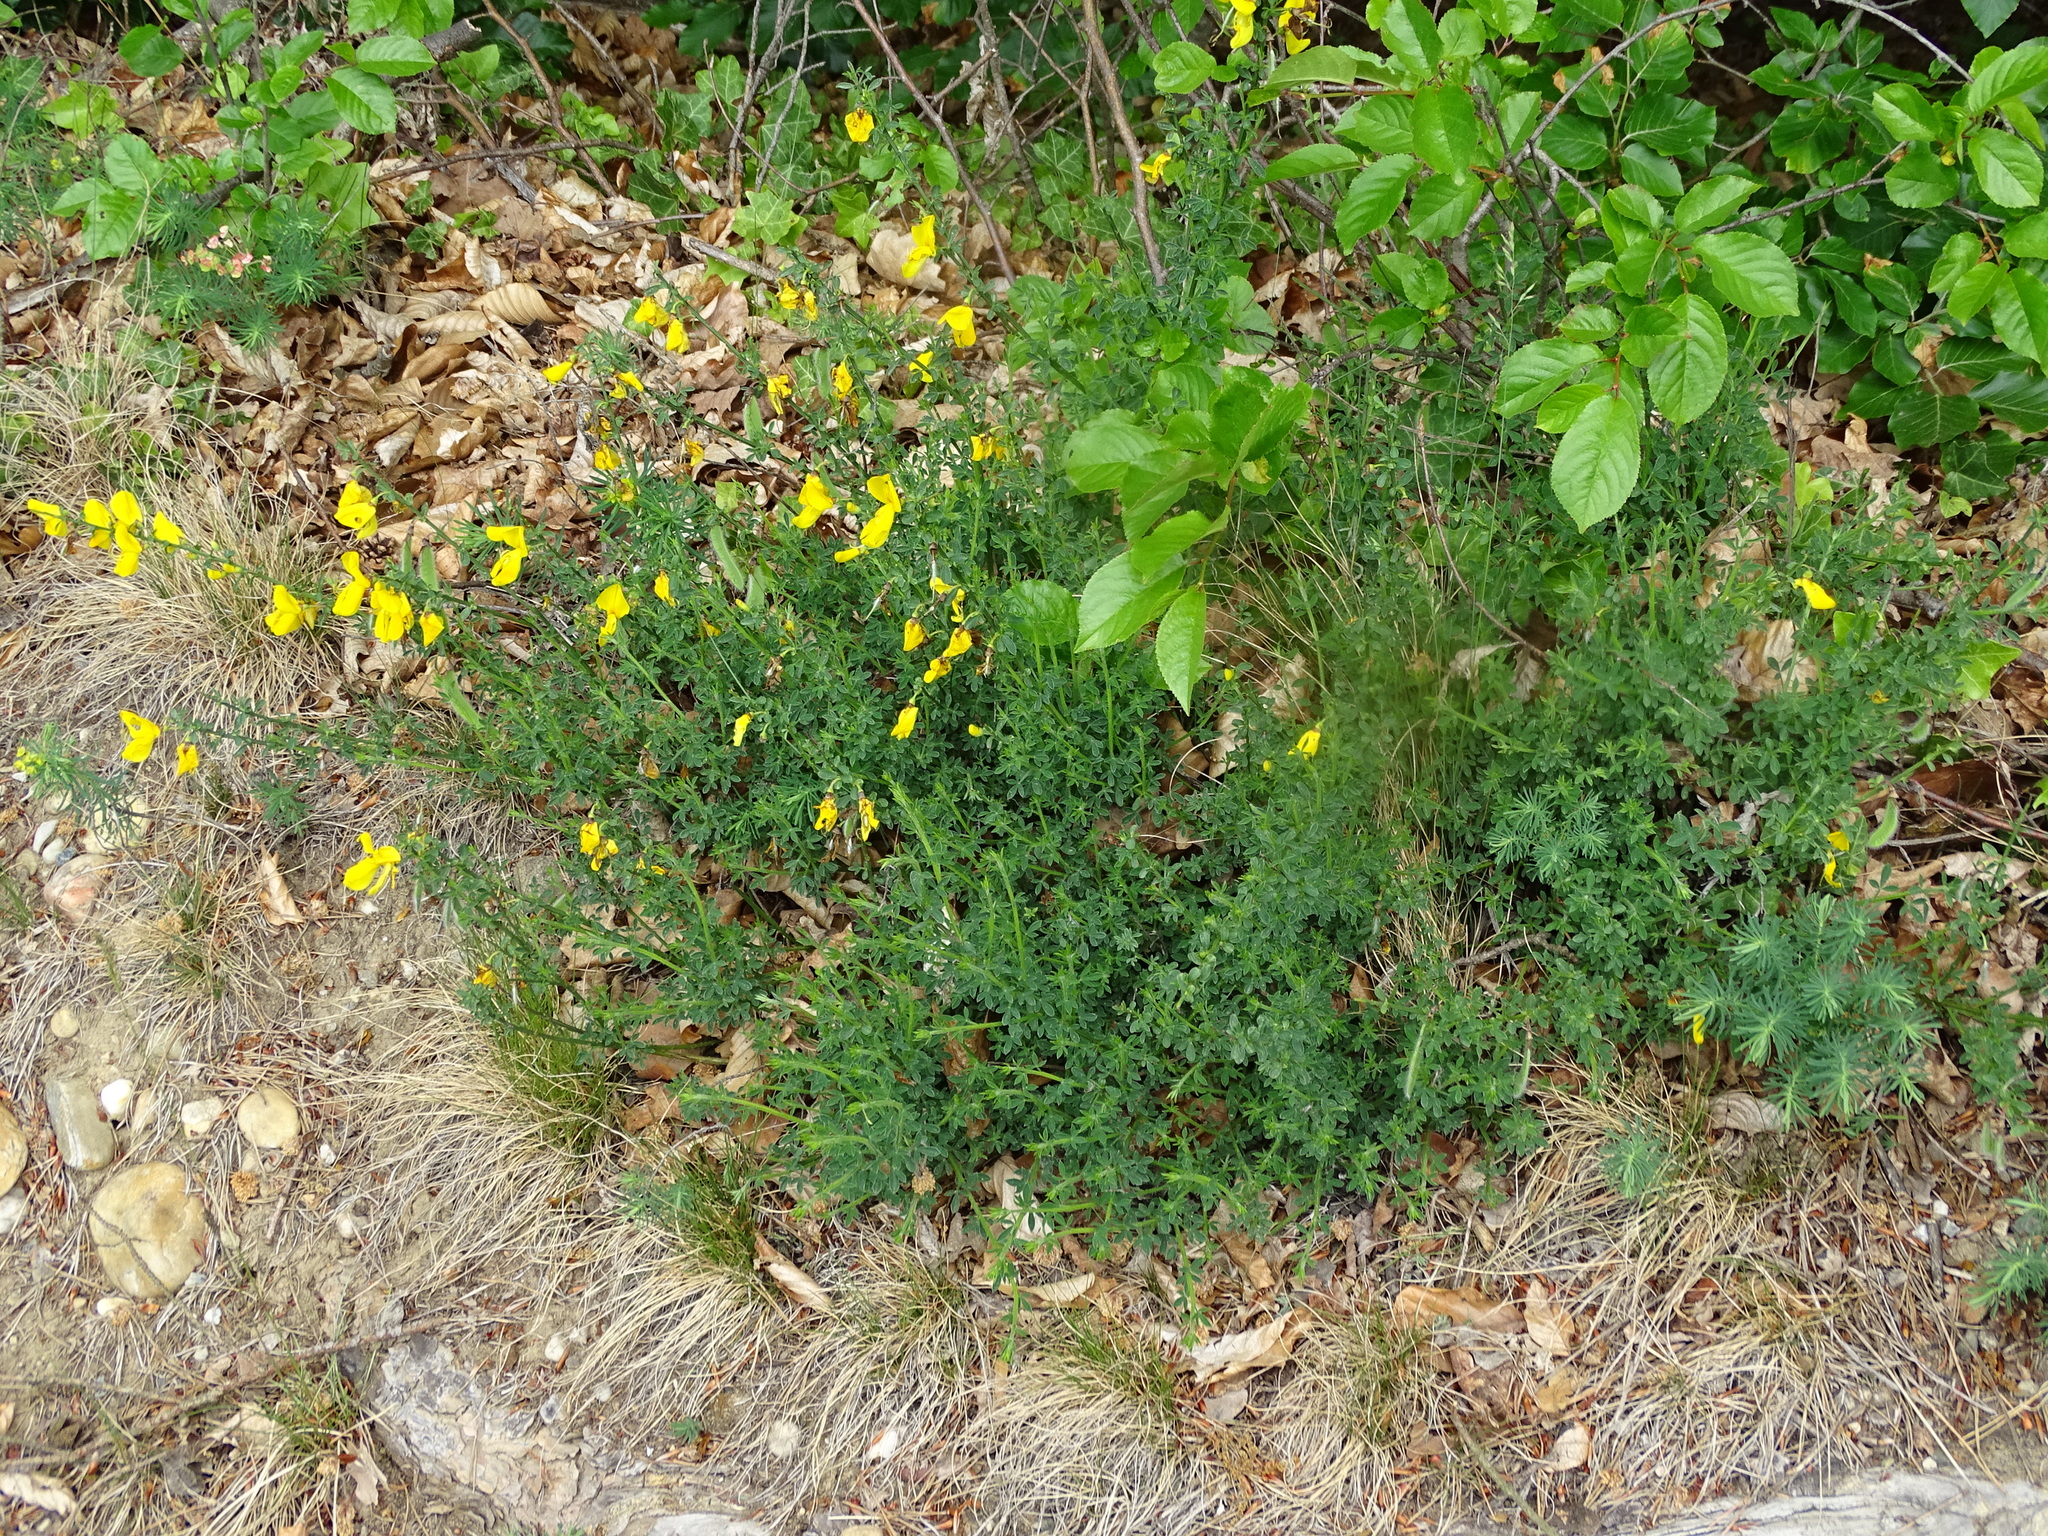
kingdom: Plantae
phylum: Tracheophyta
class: Magnoliopsida
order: Fabales
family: Fabaceae
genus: Cytisus
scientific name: Cytisus scoparius
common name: Scotch broom
